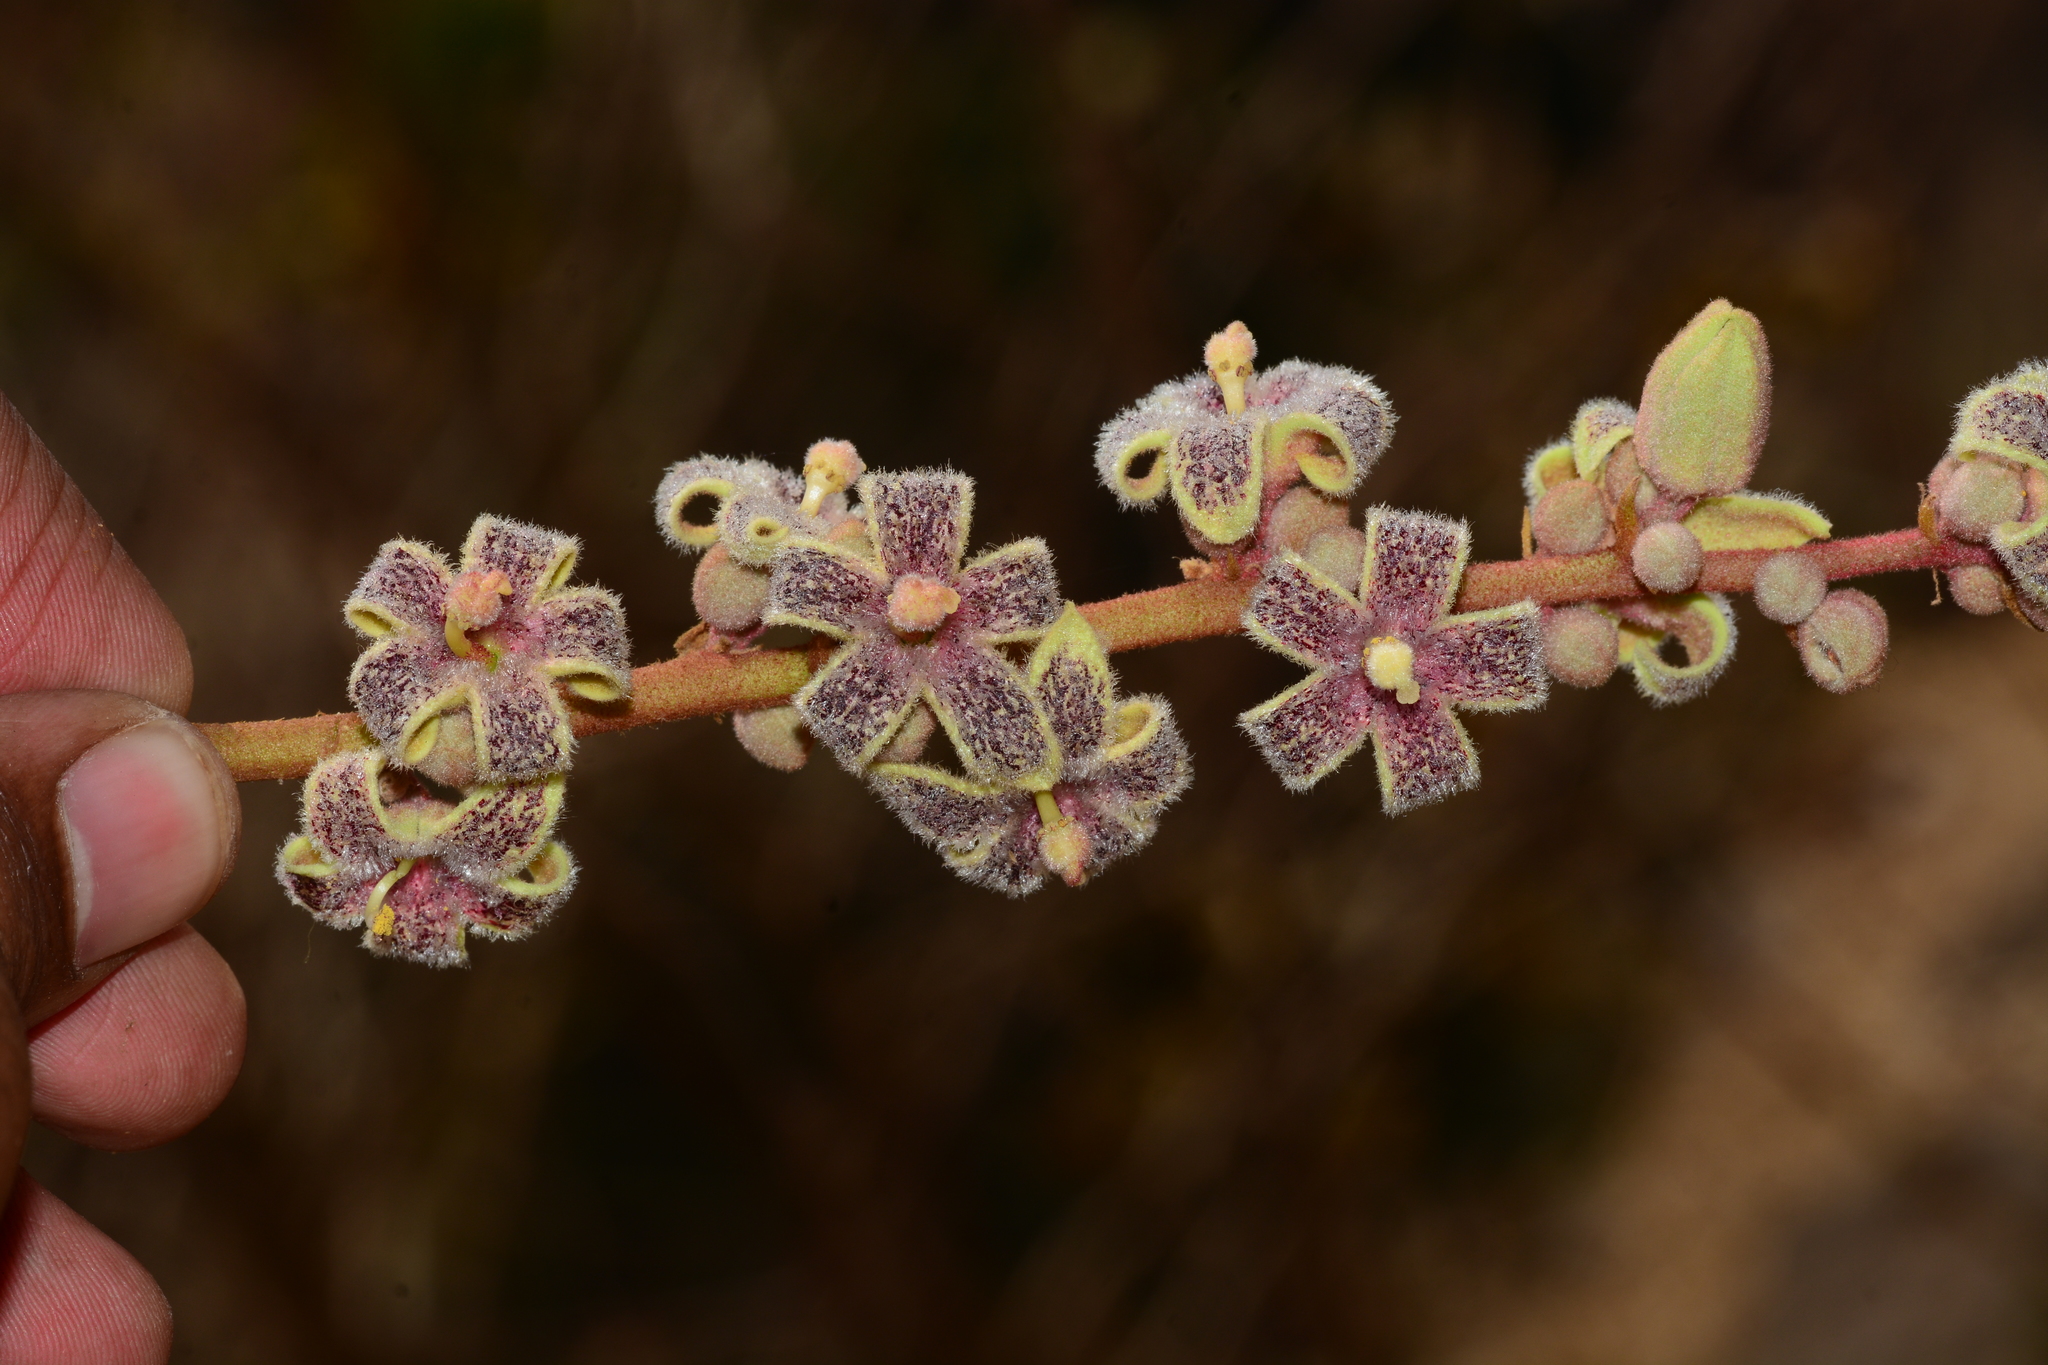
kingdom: Plantae
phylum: Tracheophyta
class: Magnoliopsida
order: Malvales
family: Malvaceae
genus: Sterculia
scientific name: Sterculia guttata
